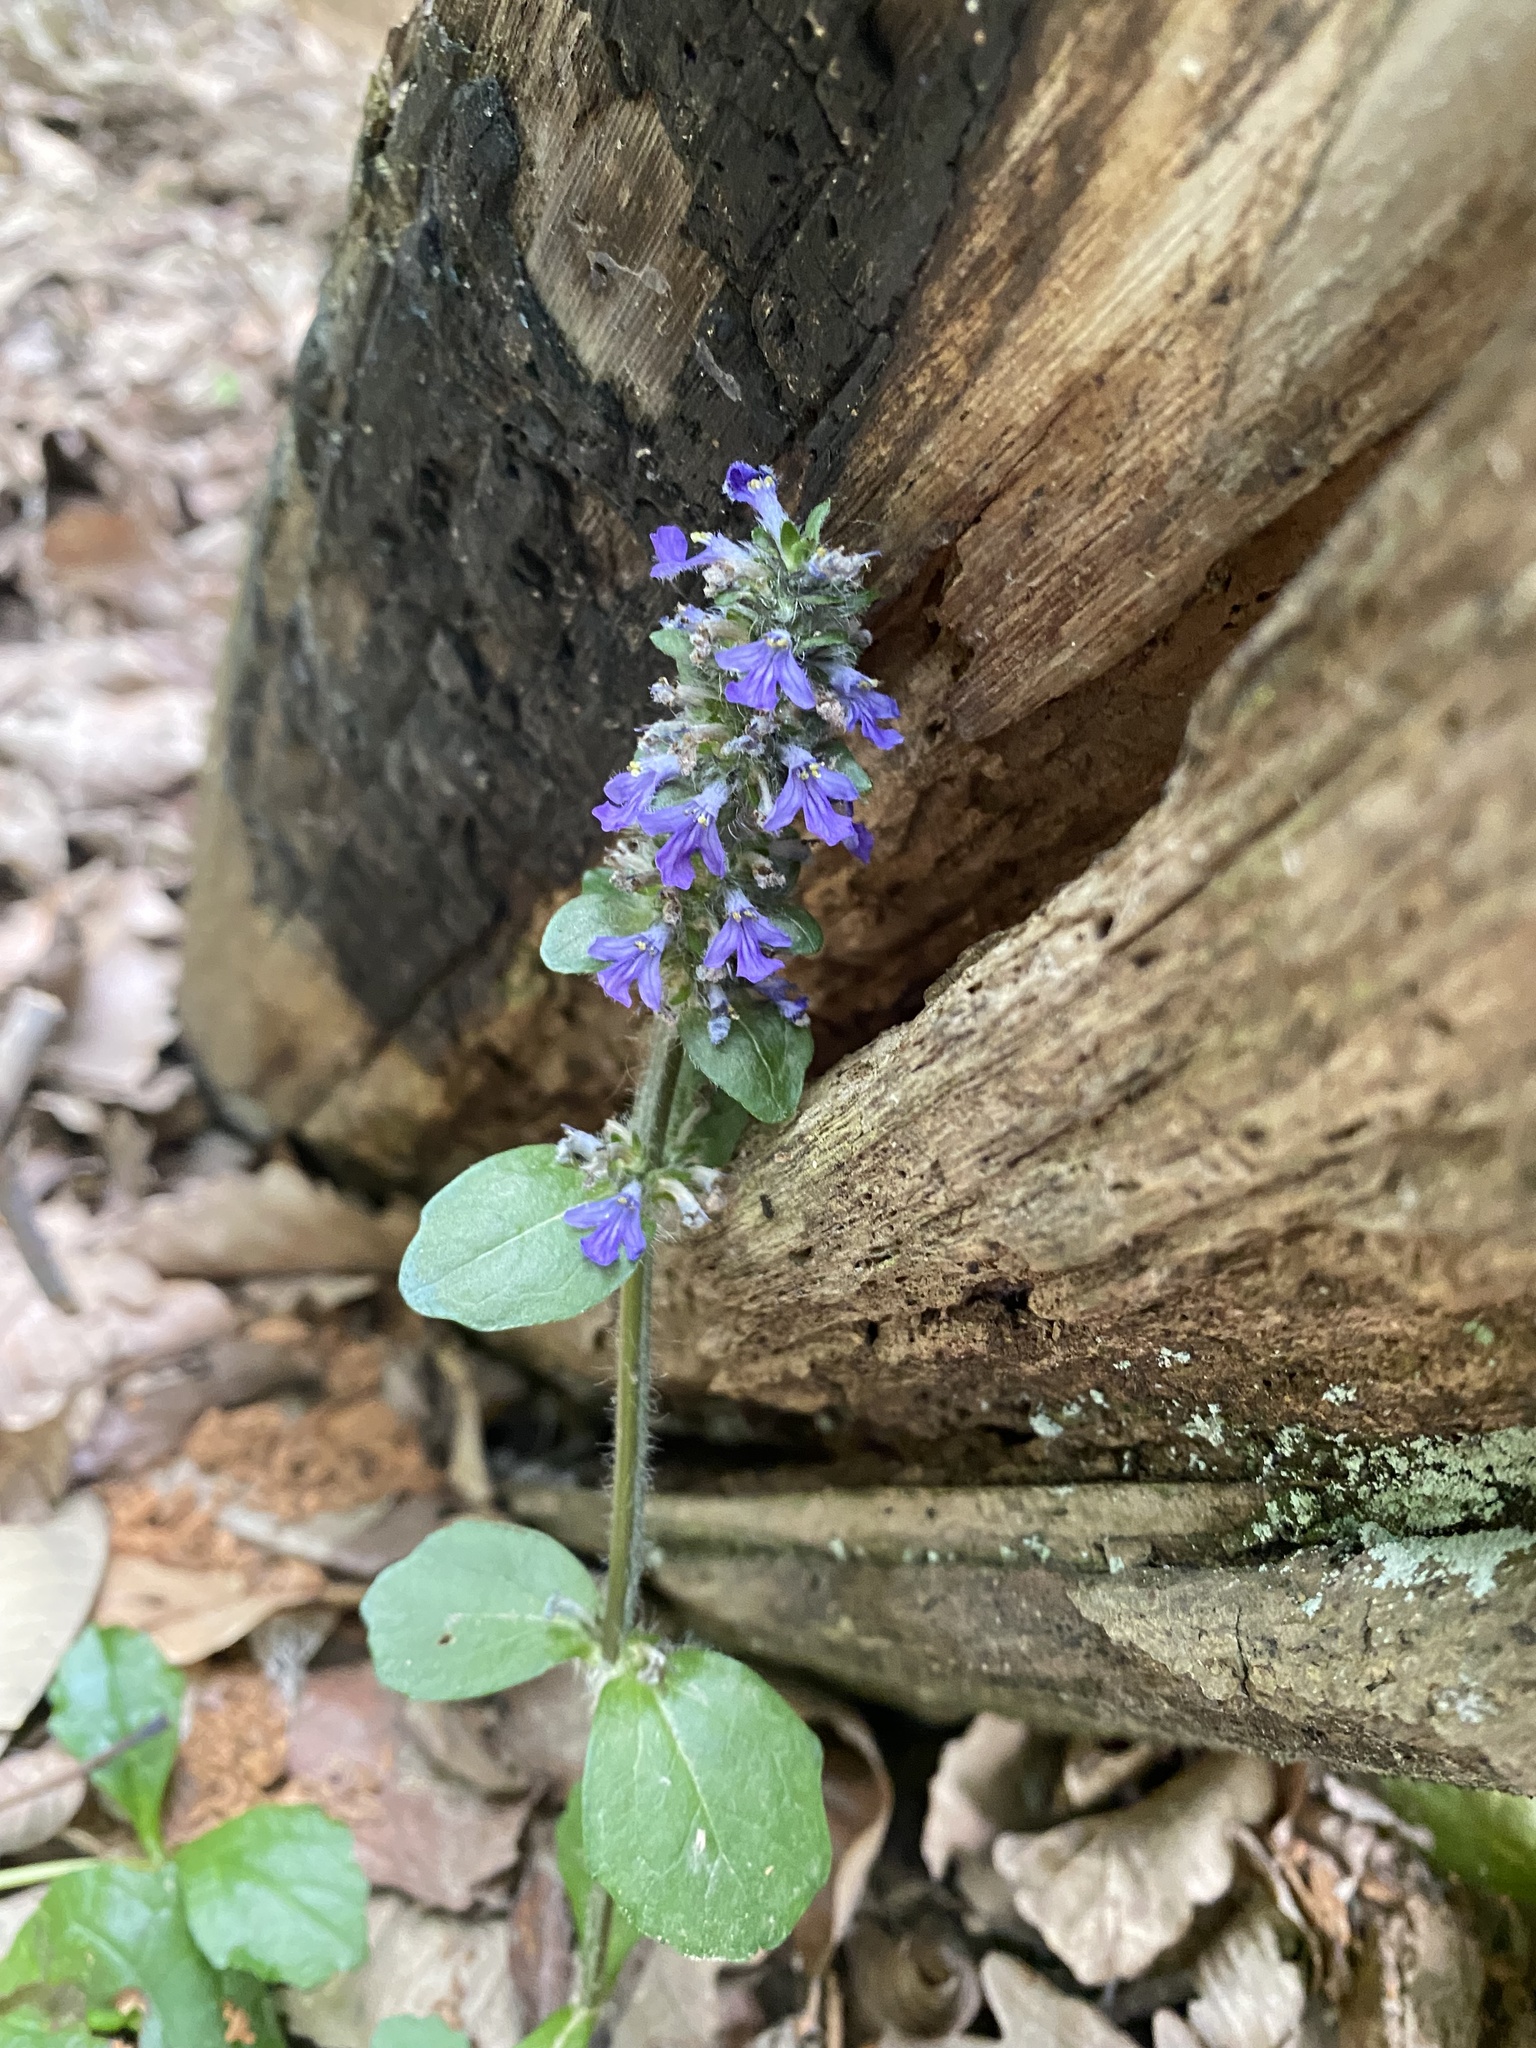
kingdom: Plantae
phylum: Tracheophyta
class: Magnoliopsida
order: Lamiales
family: Lamiaceae
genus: Ajuga
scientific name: Ajuga reptans
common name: Bugle
